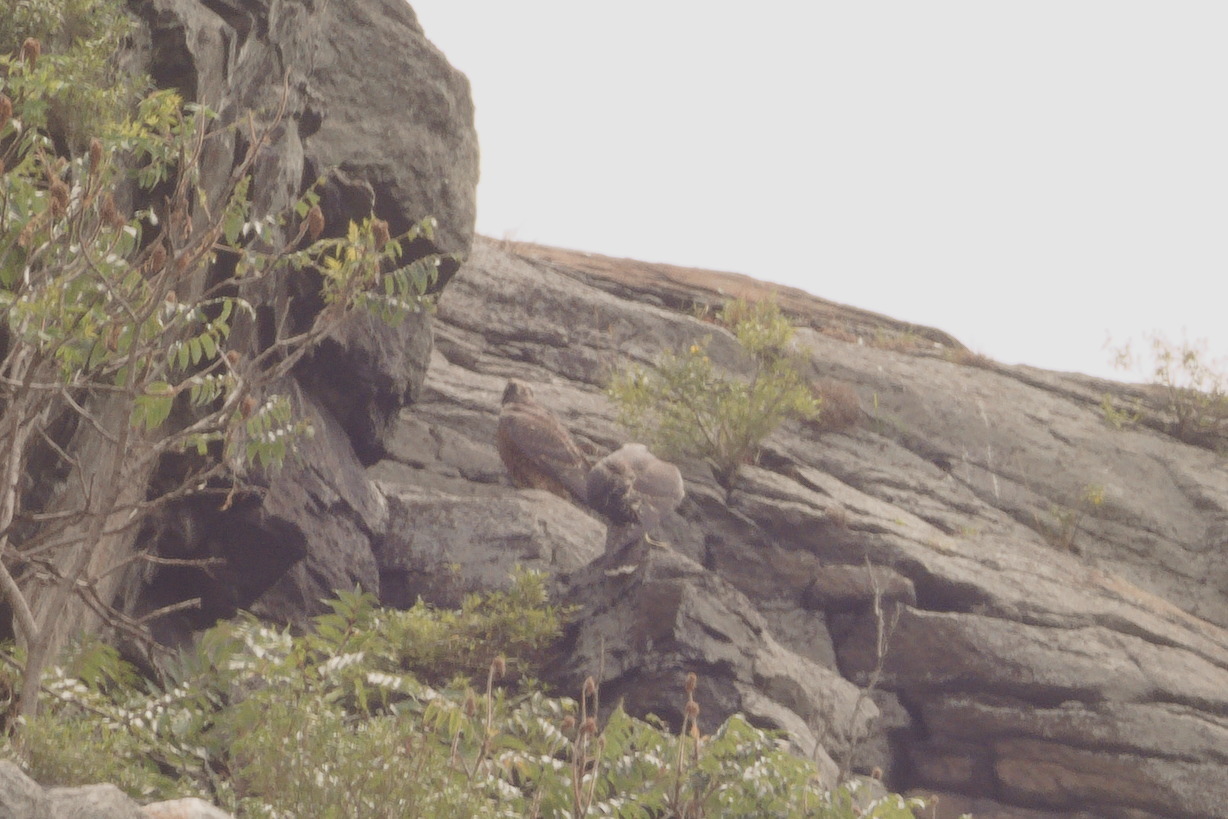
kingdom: Animalia
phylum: Chordata
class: Aves
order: Falconiformes
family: Falconidae
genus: Falco
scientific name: Falco peregrinus
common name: Peregrine falcon
